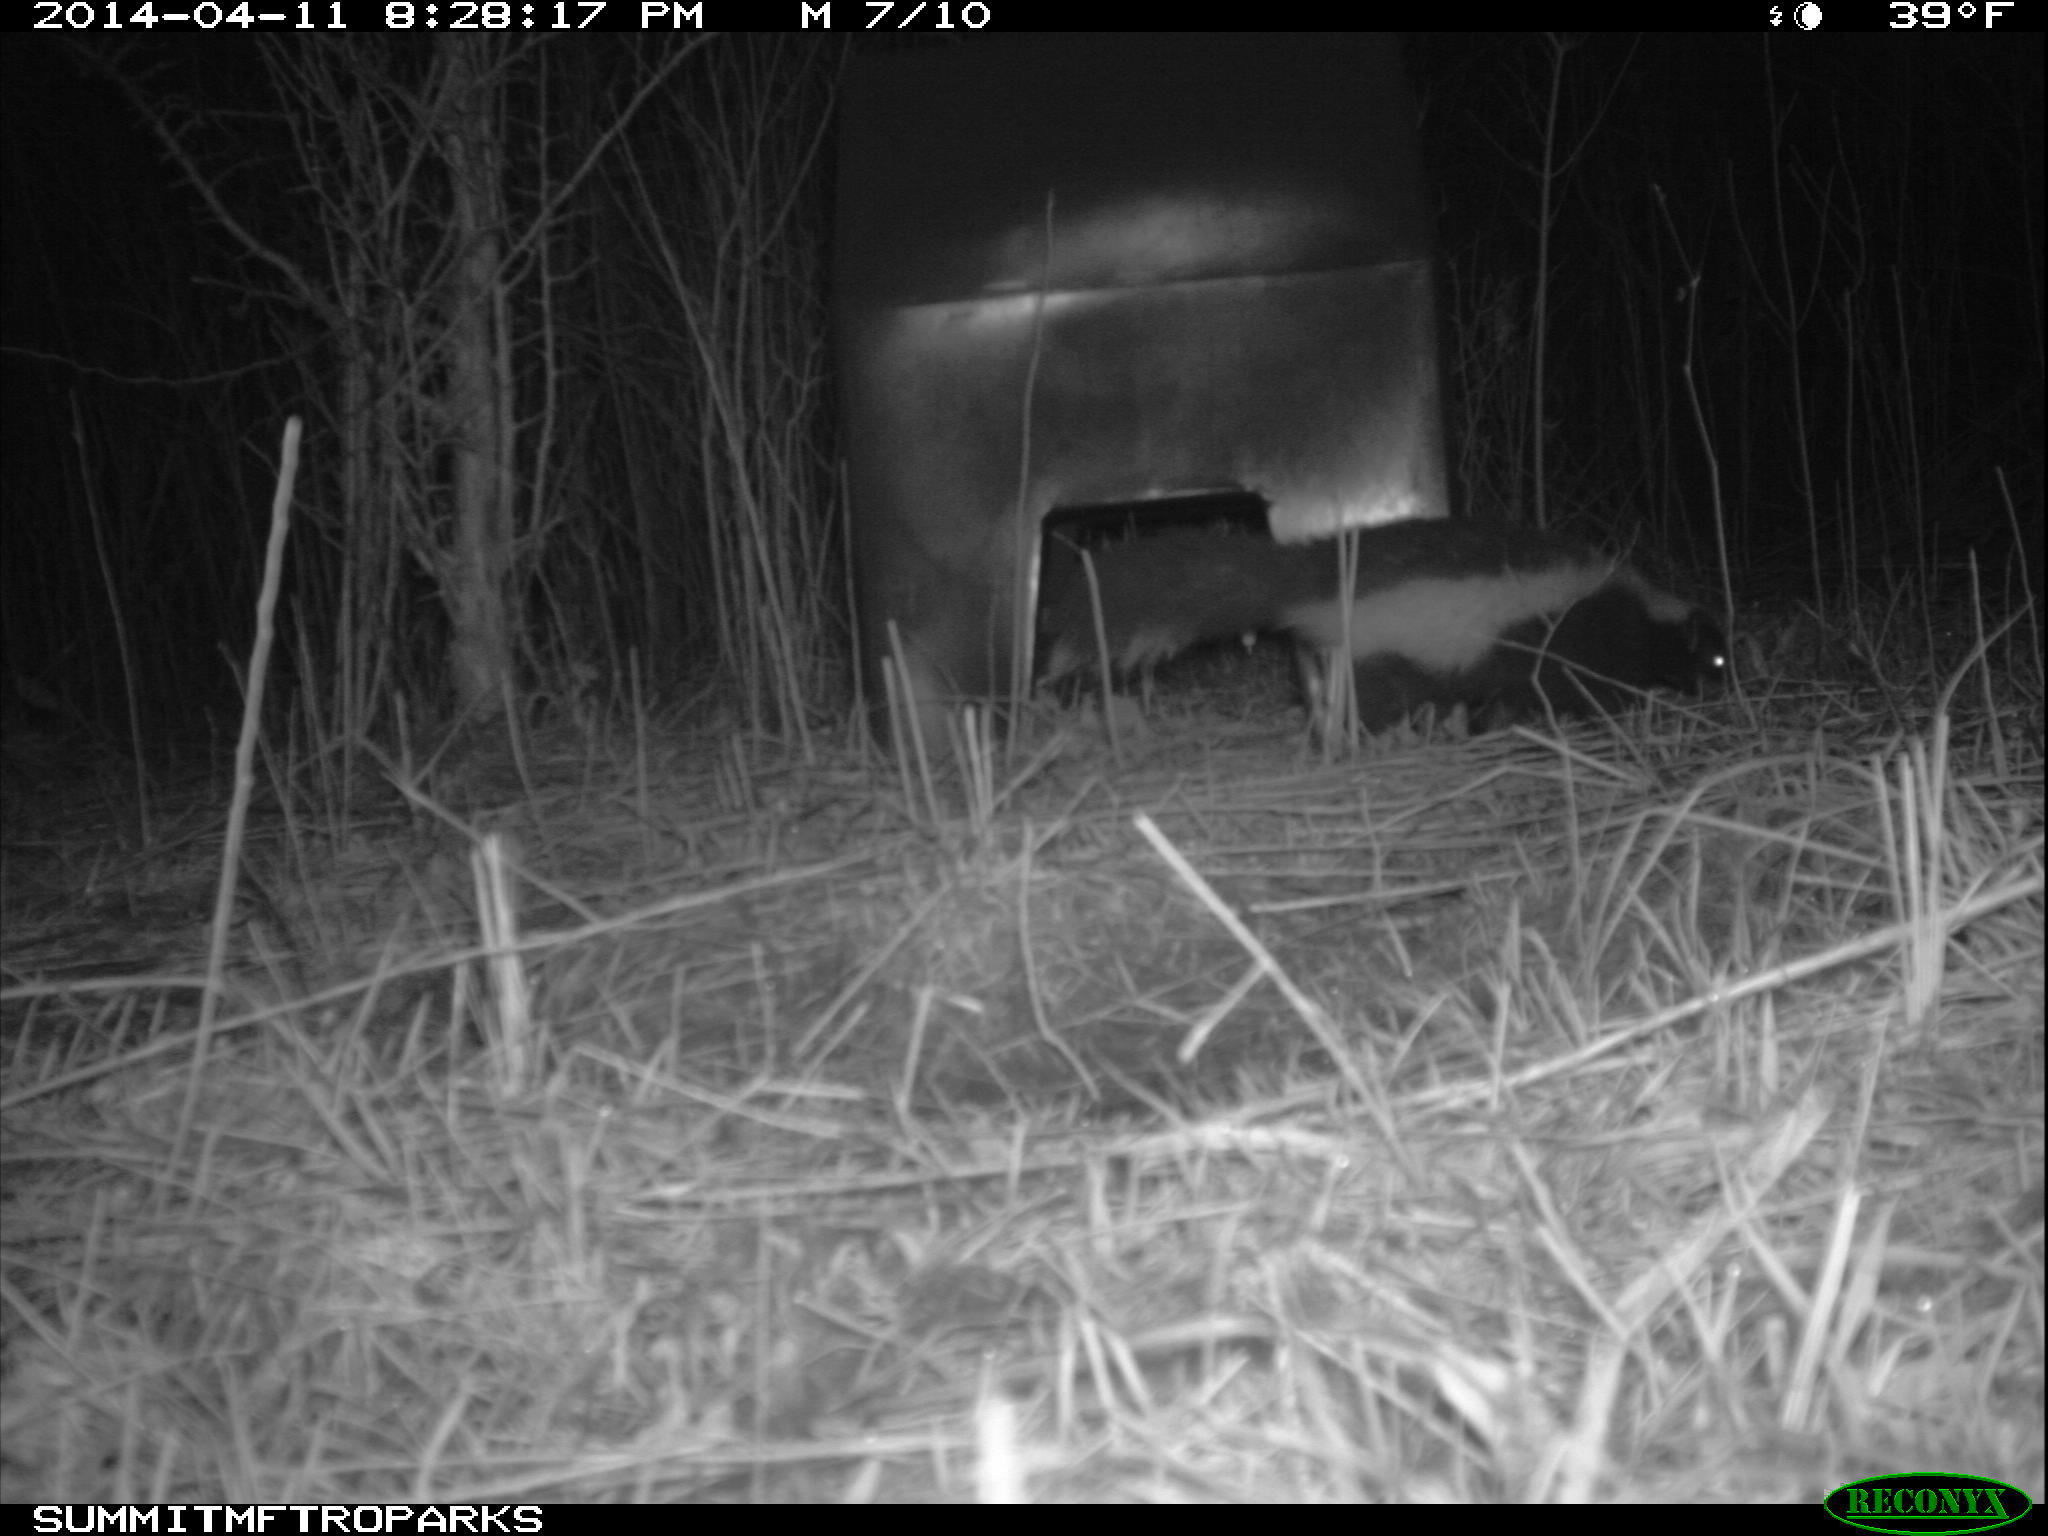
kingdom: Animalia
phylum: Chordata
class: Mammalia
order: Carnivora
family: Mephitidae
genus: Mephitis
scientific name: Mephitis mephitis
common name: Striped skunk
